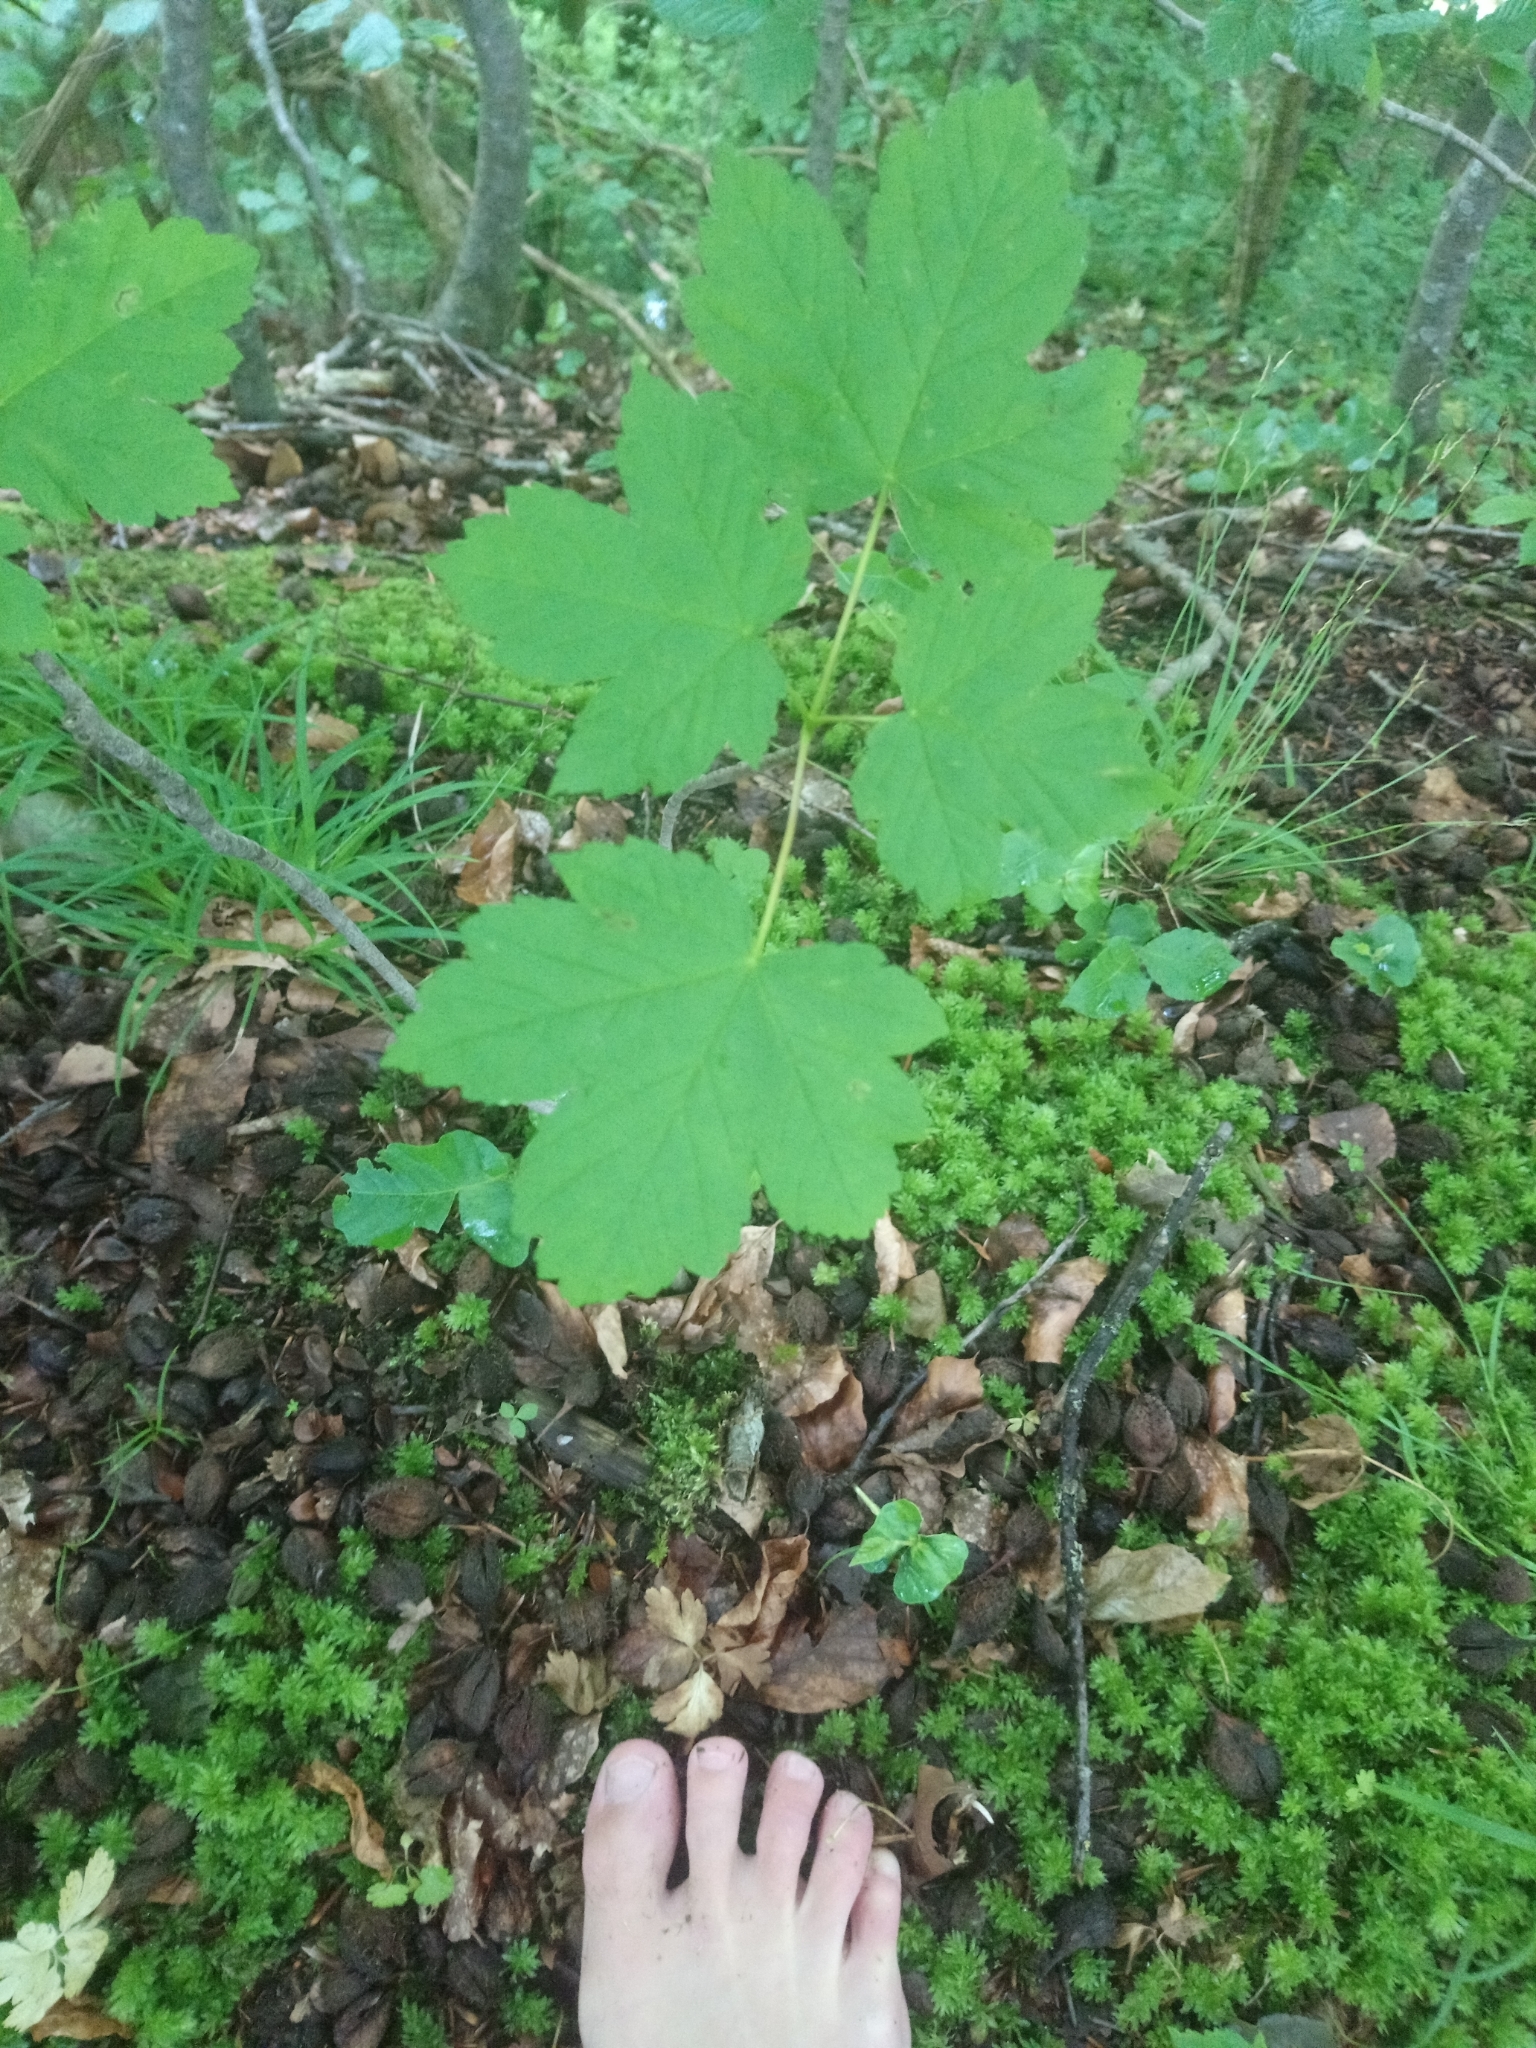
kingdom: Plantae
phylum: Tracheophyta
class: Magnoliopsida
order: Sapindales
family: Sapindaceae
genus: Acer
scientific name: Acer pseudoplatanus
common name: Sycamore
